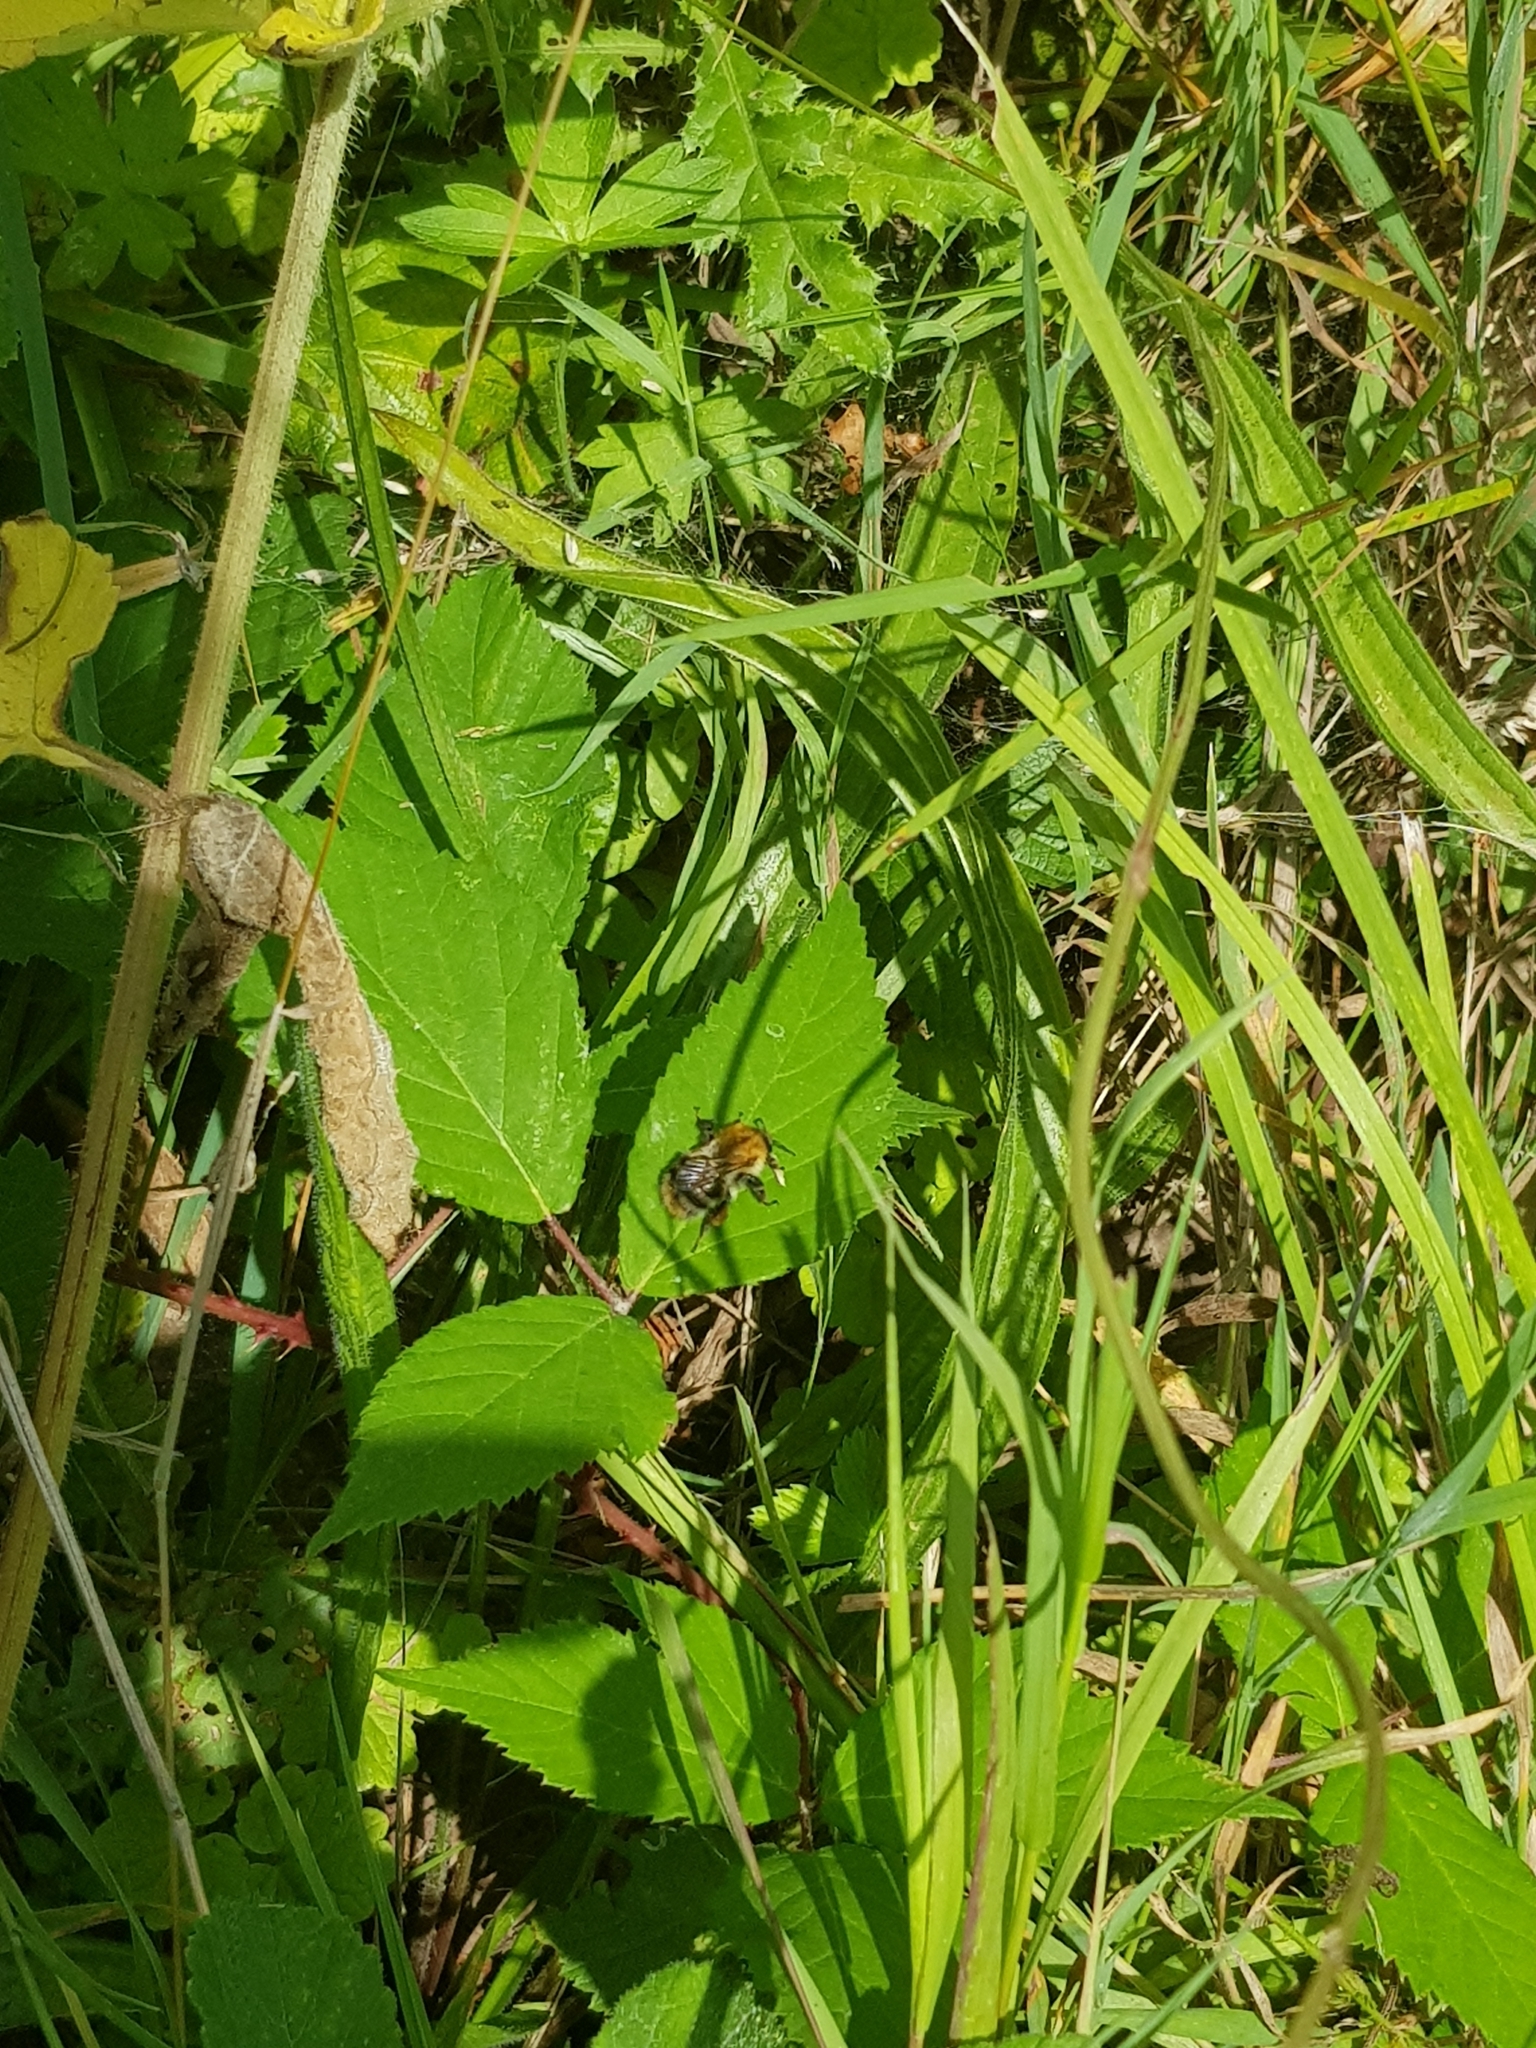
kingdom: Animalia
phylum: Arthropoda
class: Insecta
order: Hymenoptera
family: Apidae
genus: Bombus
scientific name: Bombus pascuorum
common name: Common carder bee
